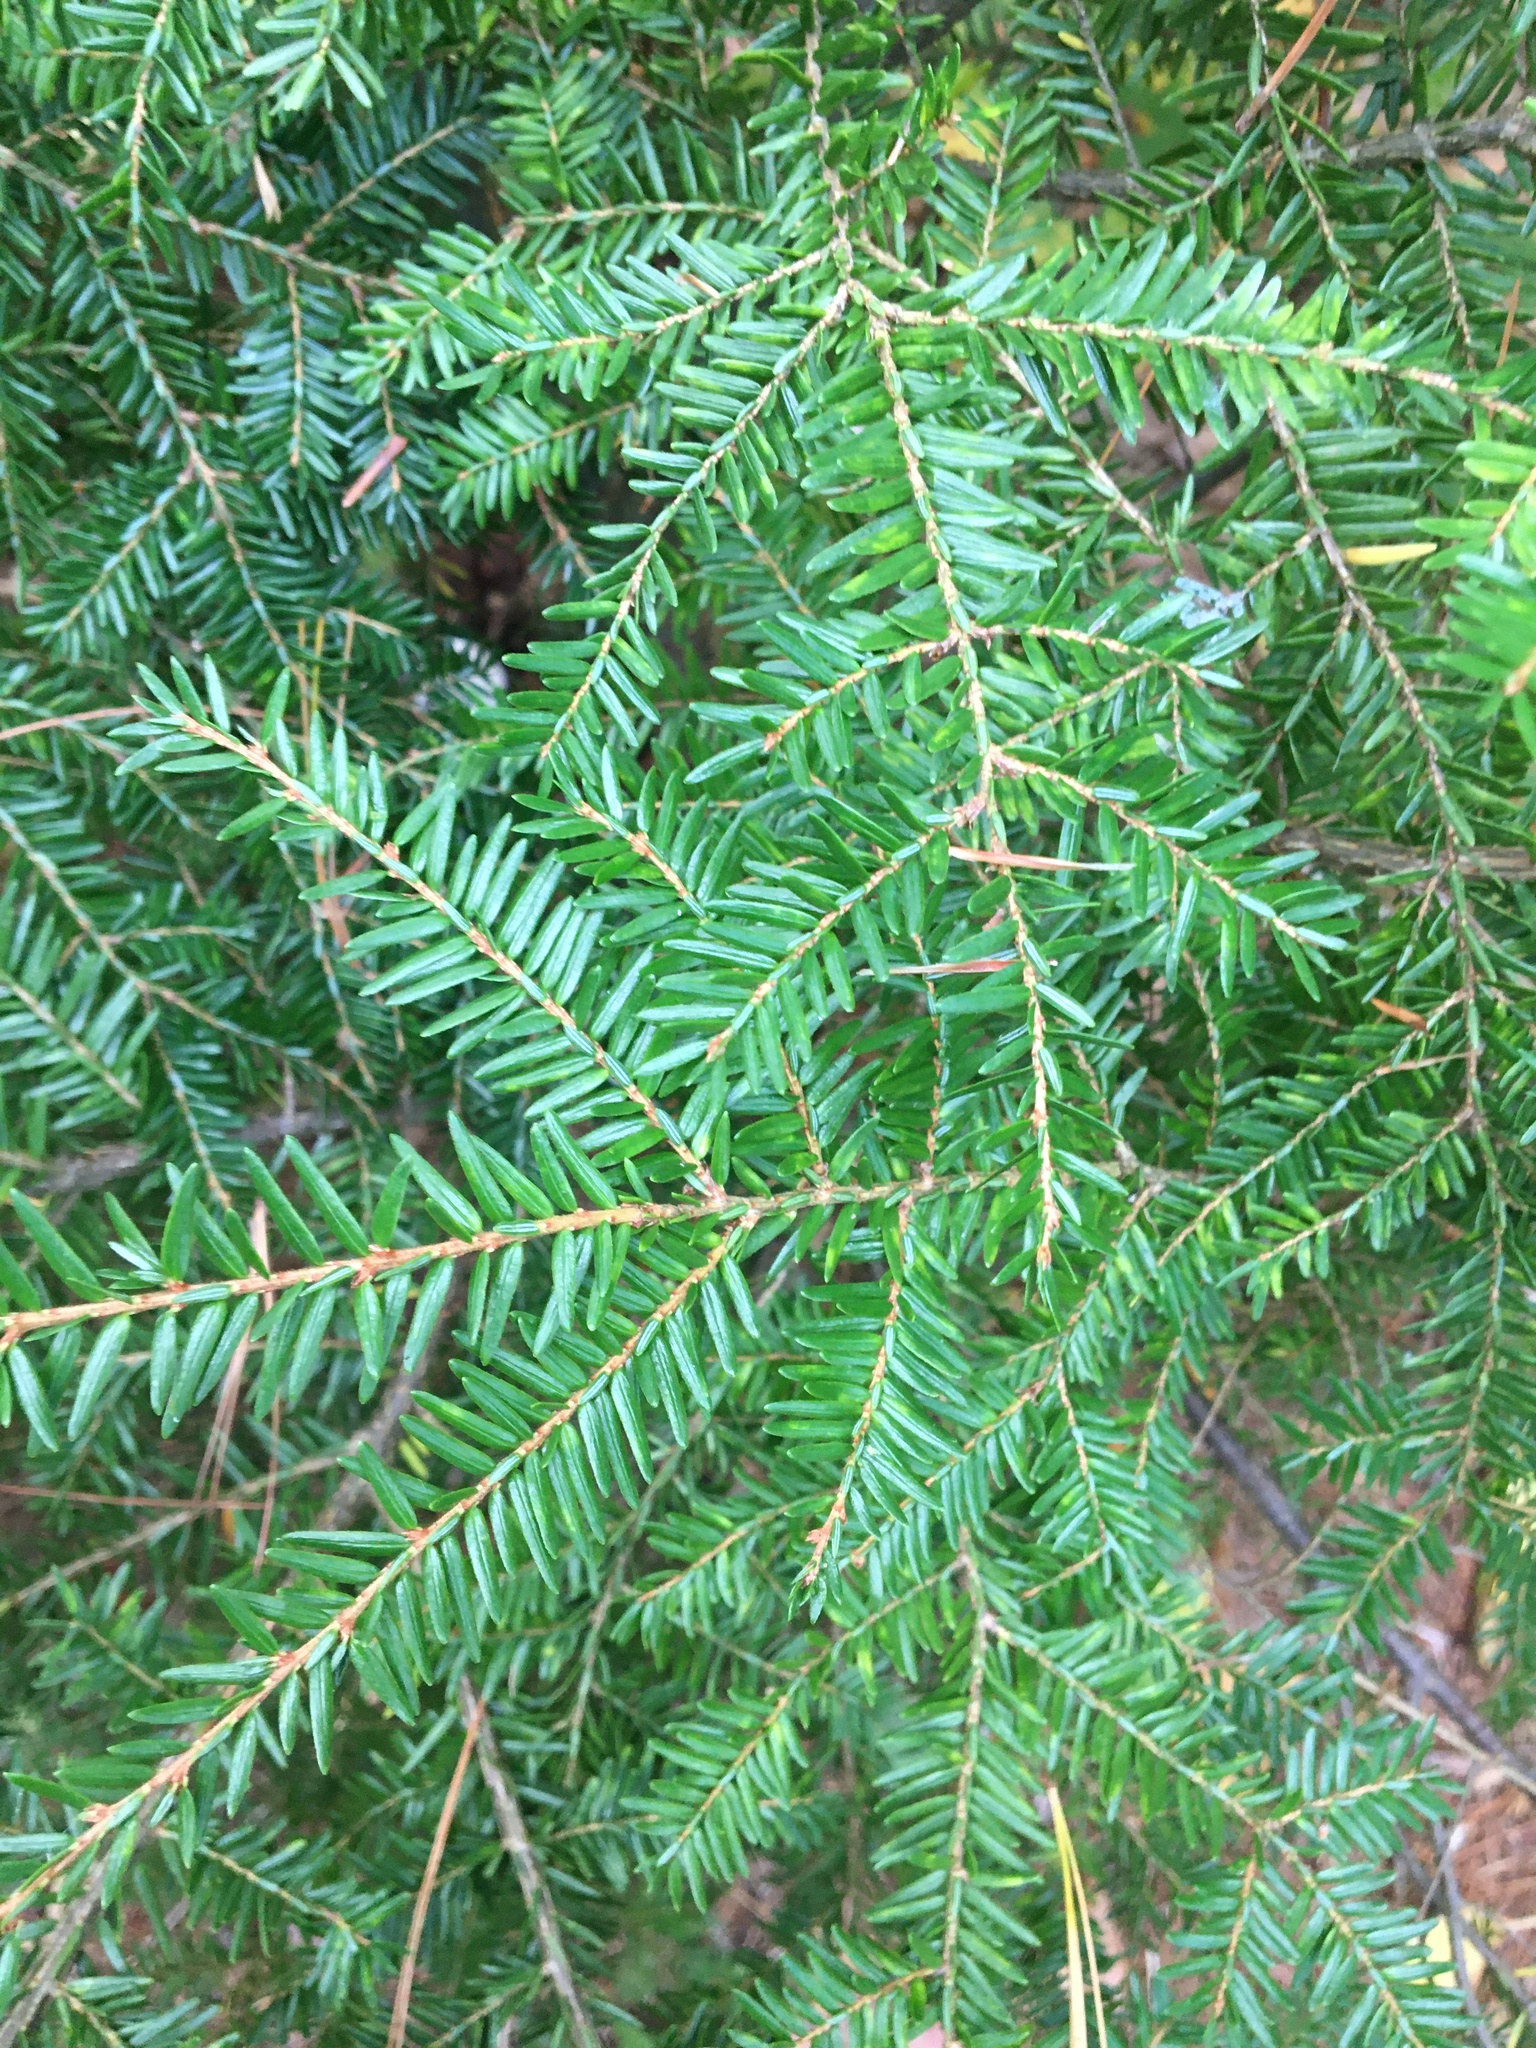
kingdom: Plantae
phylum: Tracheophyta
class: Pinopsida
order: Pinales
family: Pinaceae
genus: Tsuga
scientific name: Tsuga canadensis
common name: Eastern hemlock
